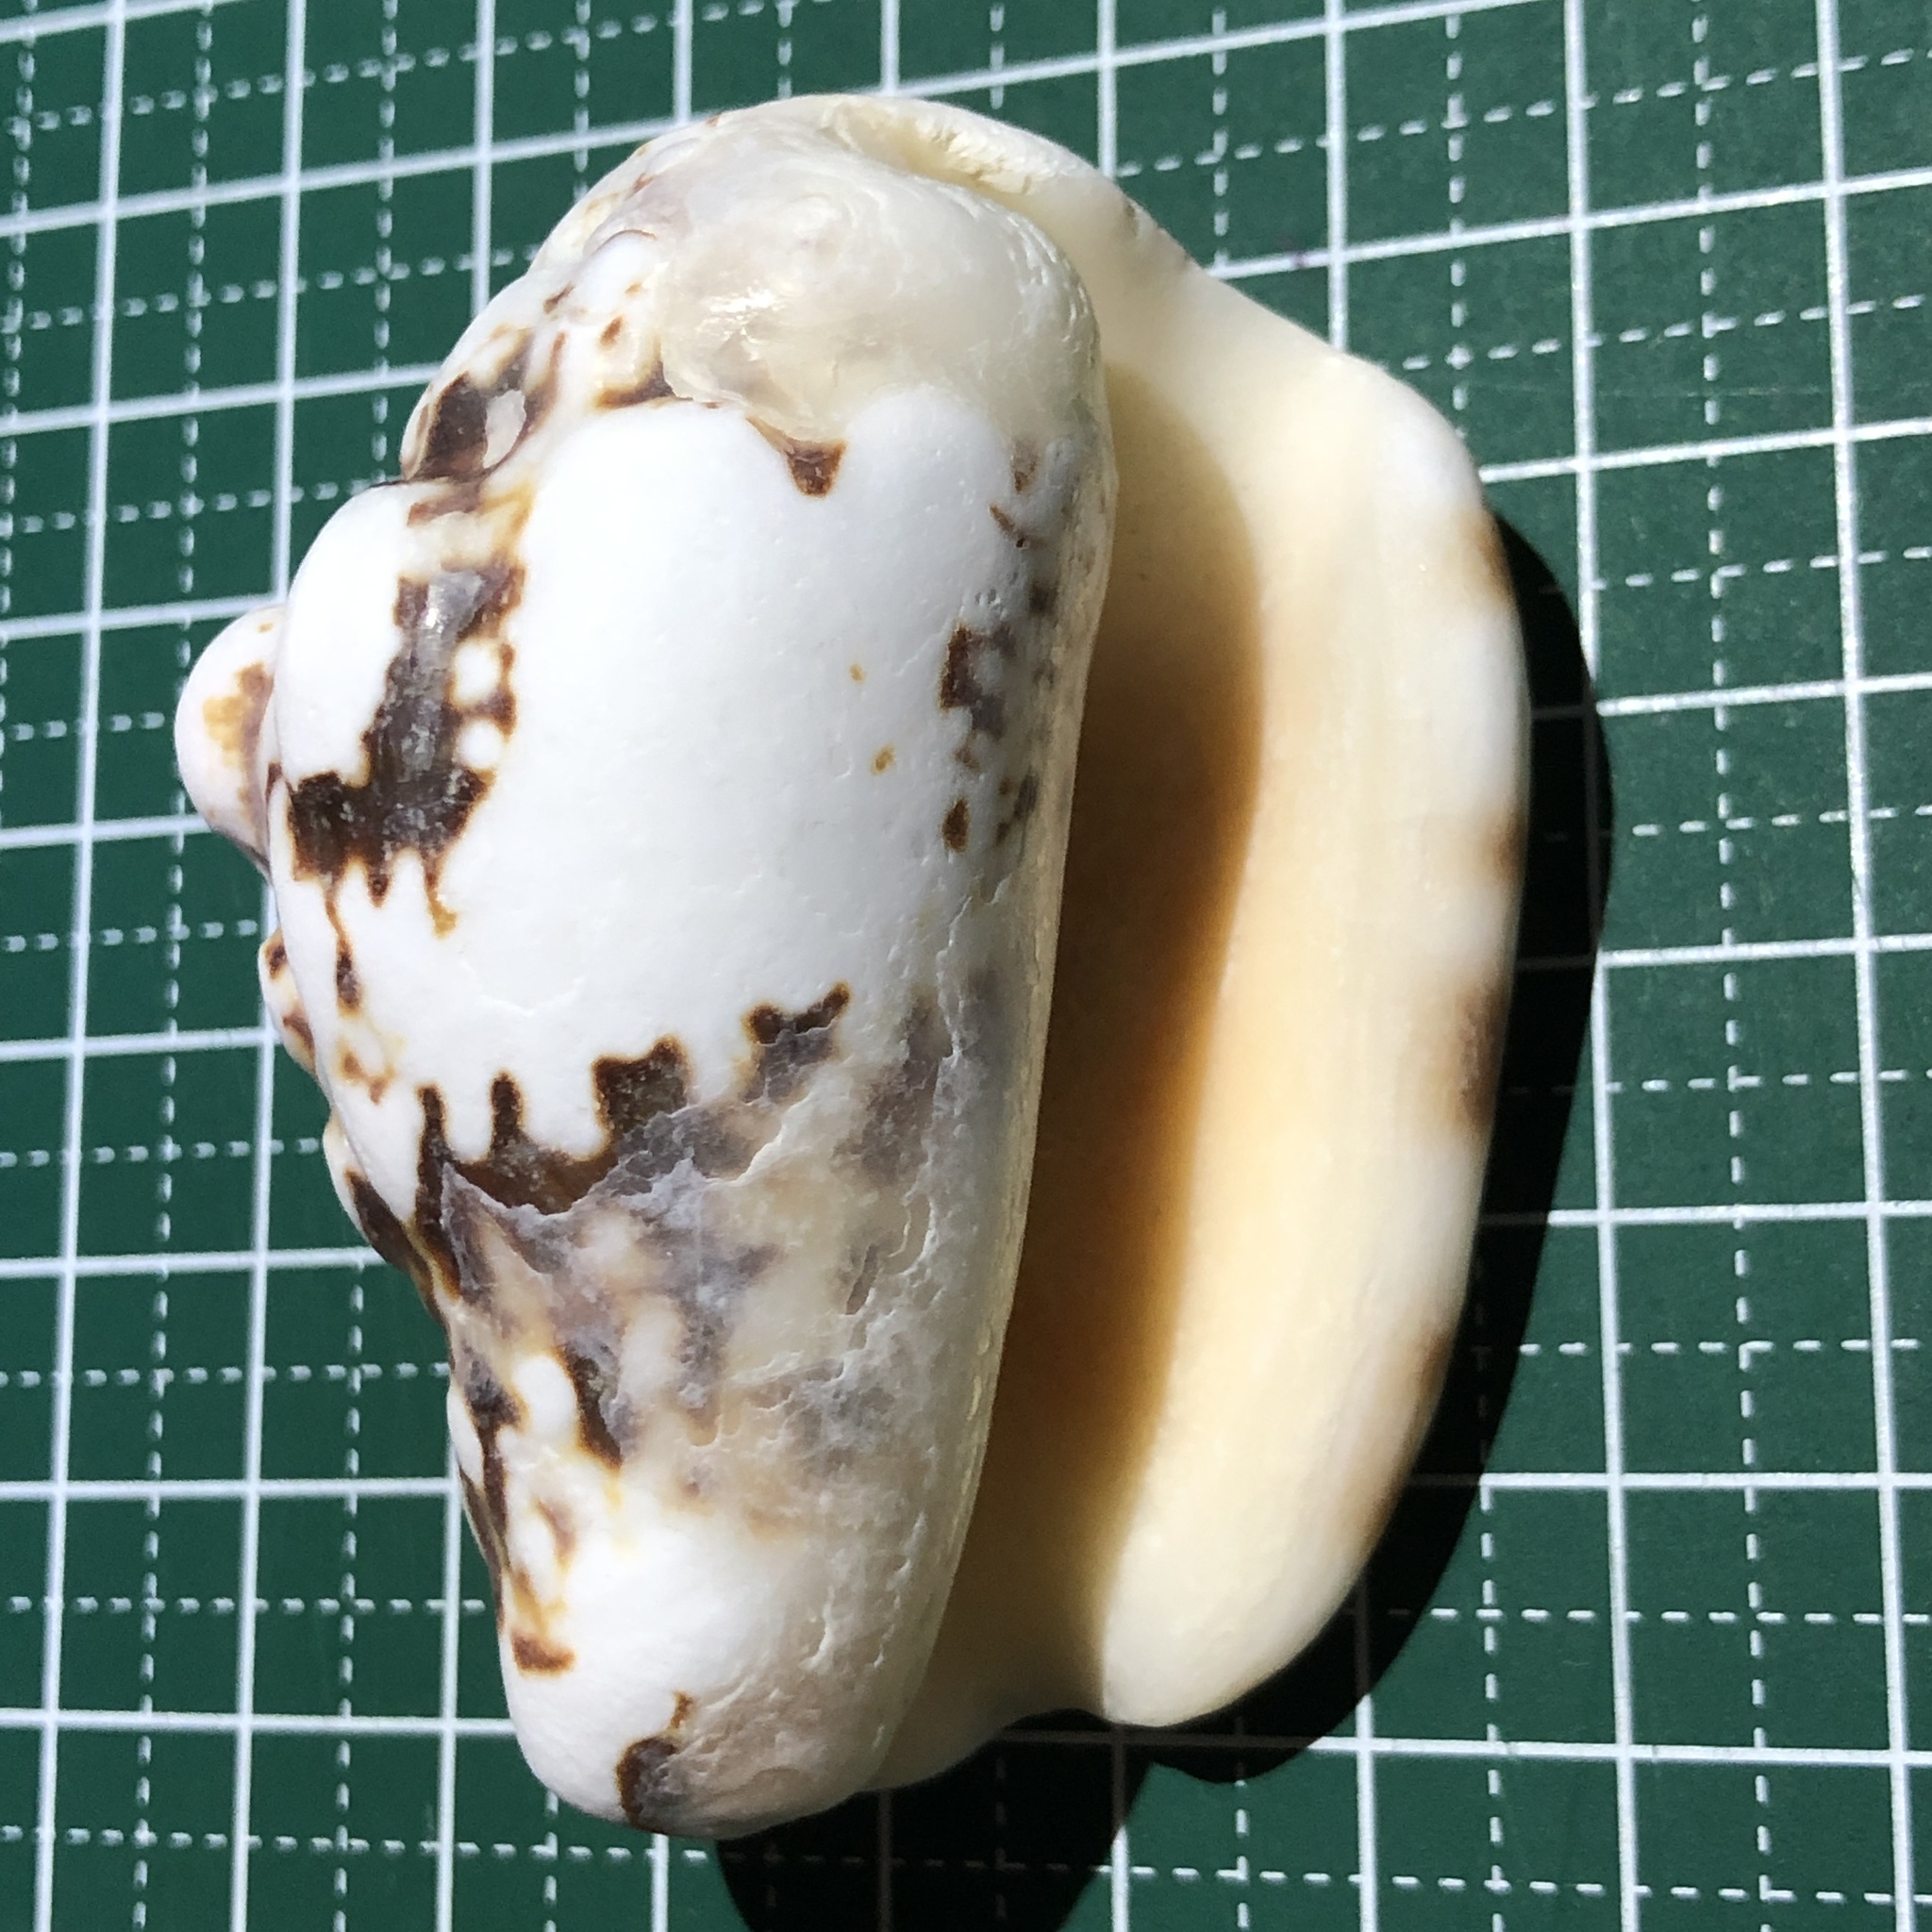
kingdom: Animalia
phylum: Mollusca
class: Gastropoda
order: Littorinimorpha
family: Strombidae
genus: Lentigo
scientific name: Lentigo lentiginosus
